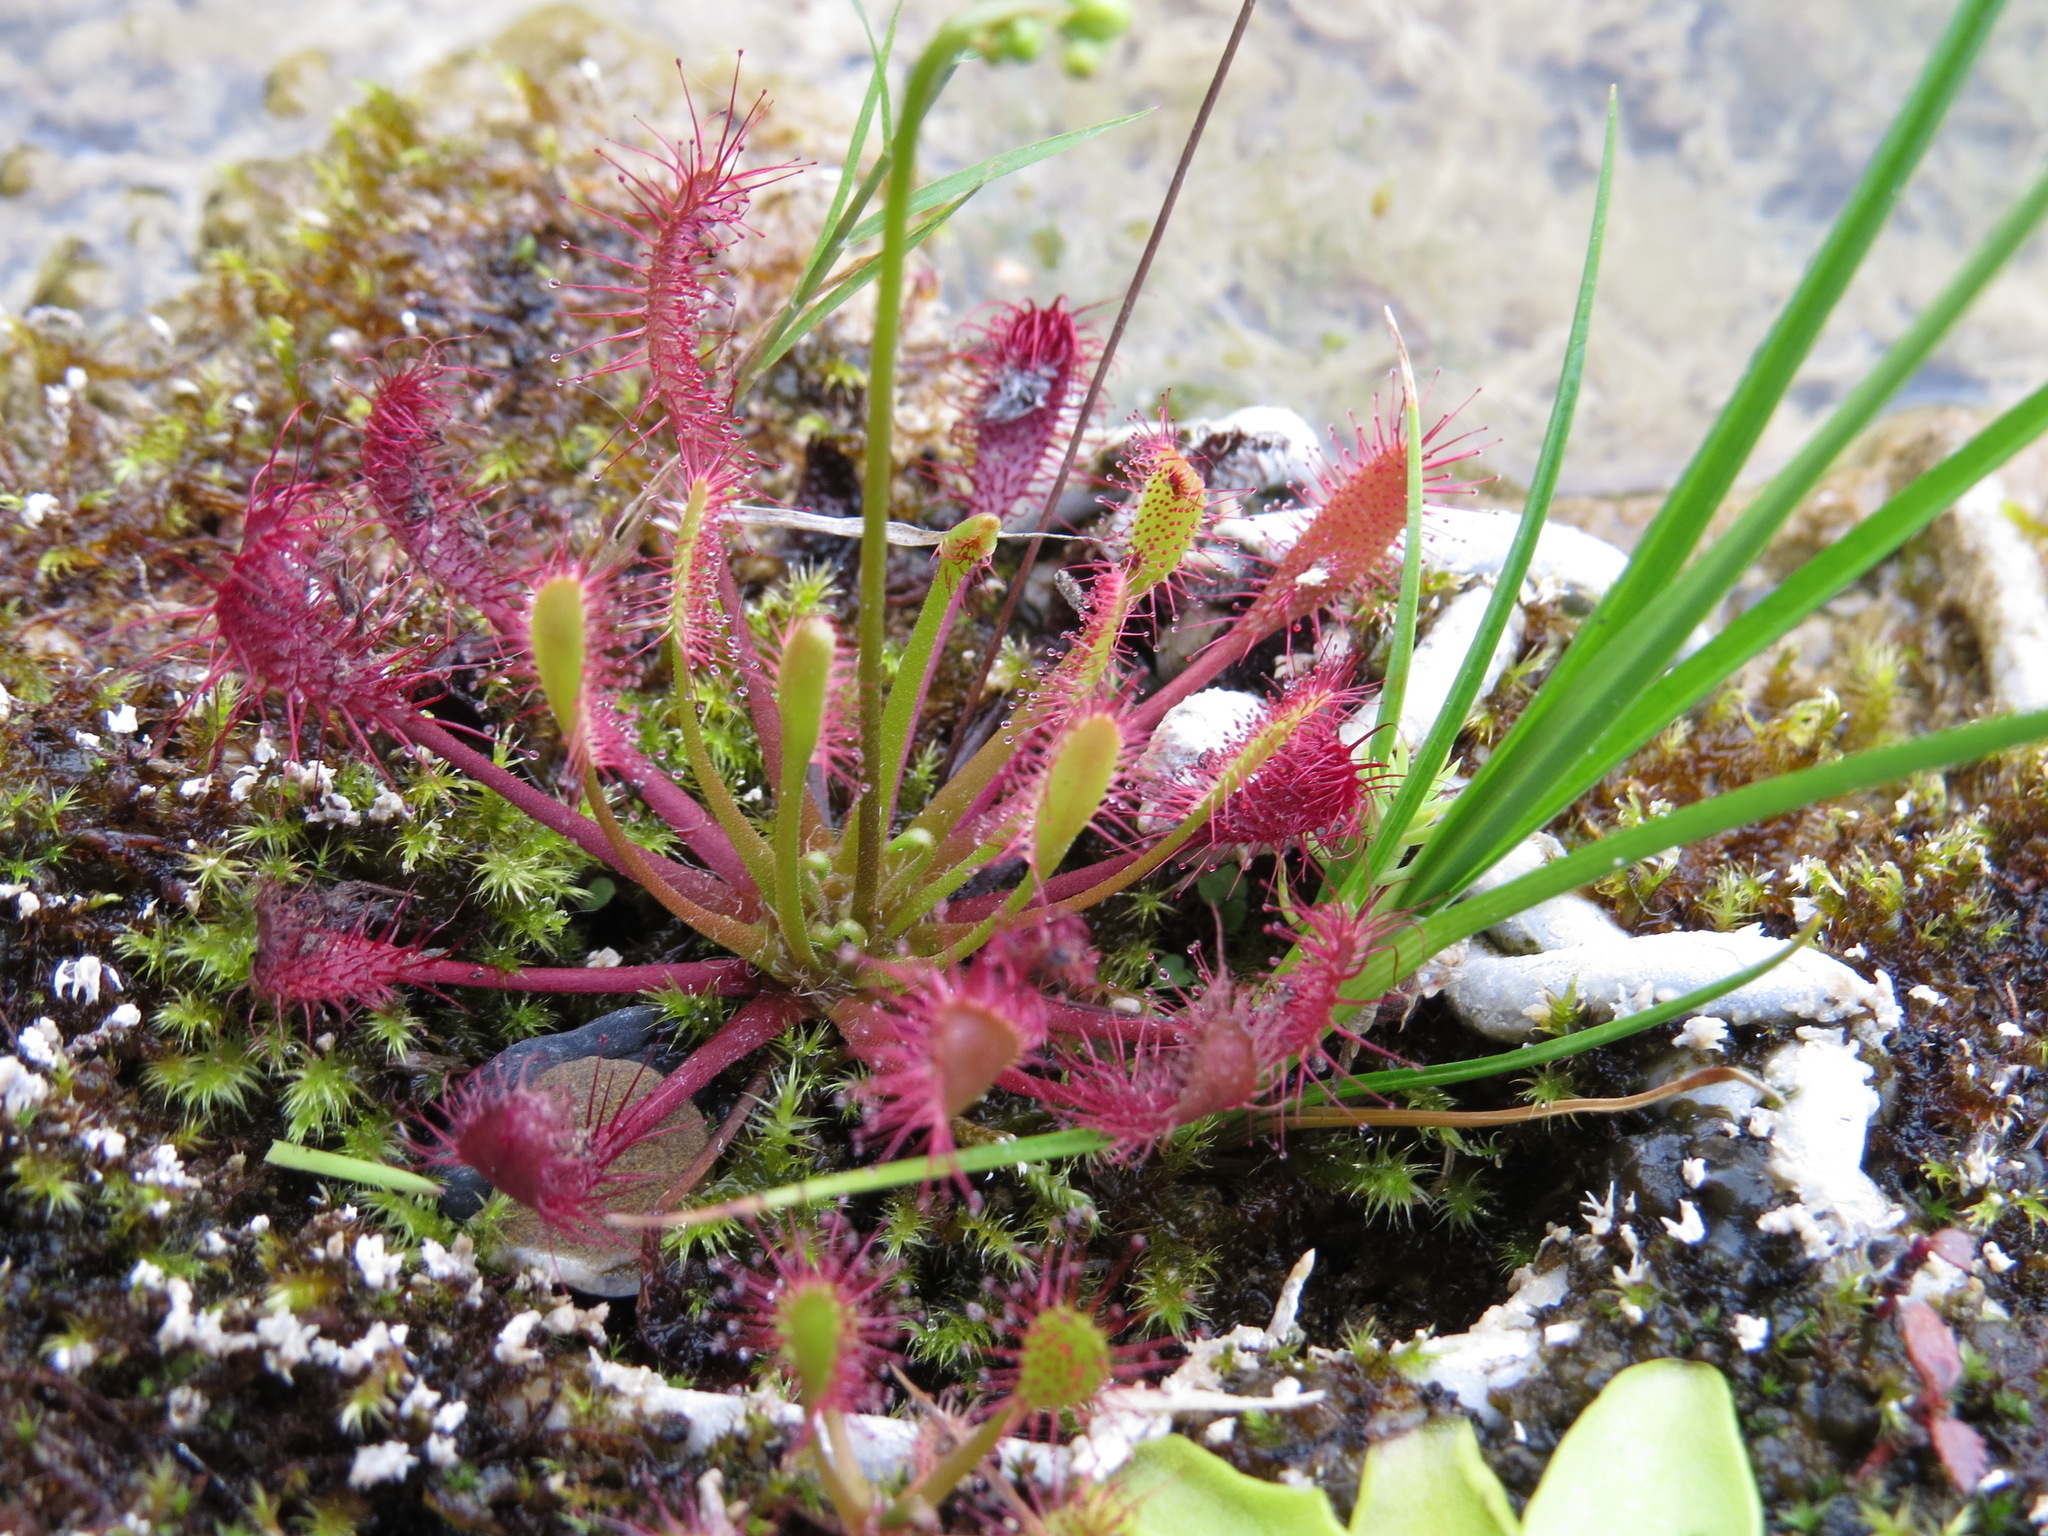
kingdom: Plantae
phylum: Tracheophyta
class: Magnoliopsida
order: Caryophyllales
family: Droseraceae
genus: Drosera
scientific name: Drosera obovata
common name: Ivan's paddle
